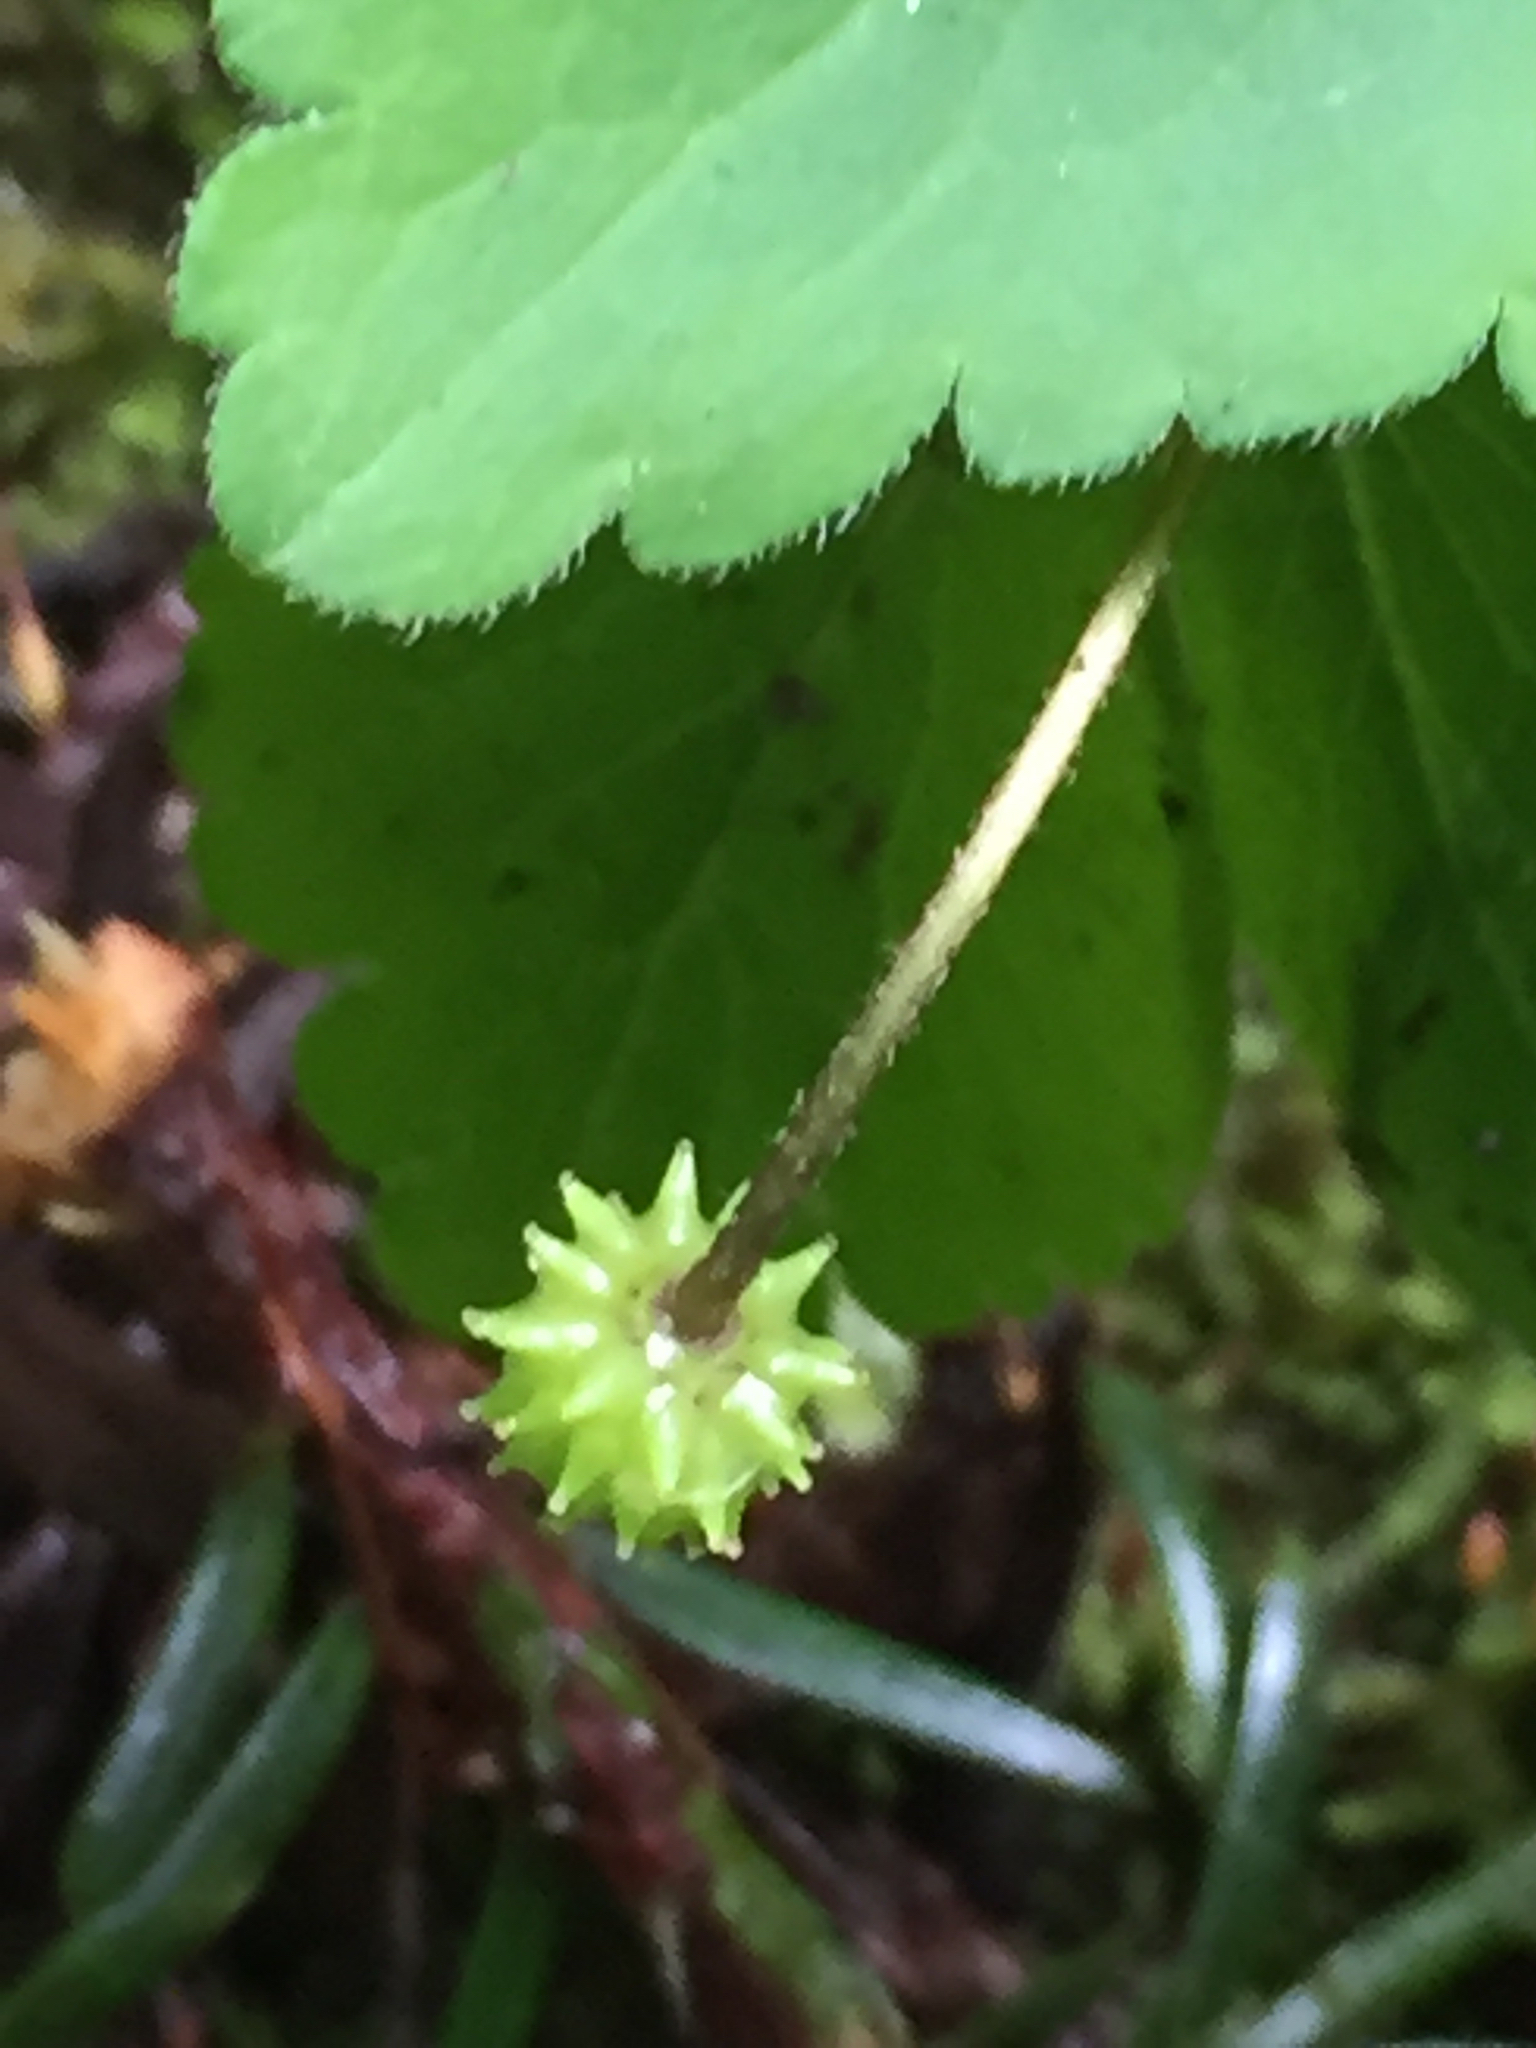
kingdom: Plantae
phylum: Tracheophyta
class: Magnoliopsida
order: Ranunculales
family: Ranunculaceae
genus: Anemone
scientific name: Anemone
